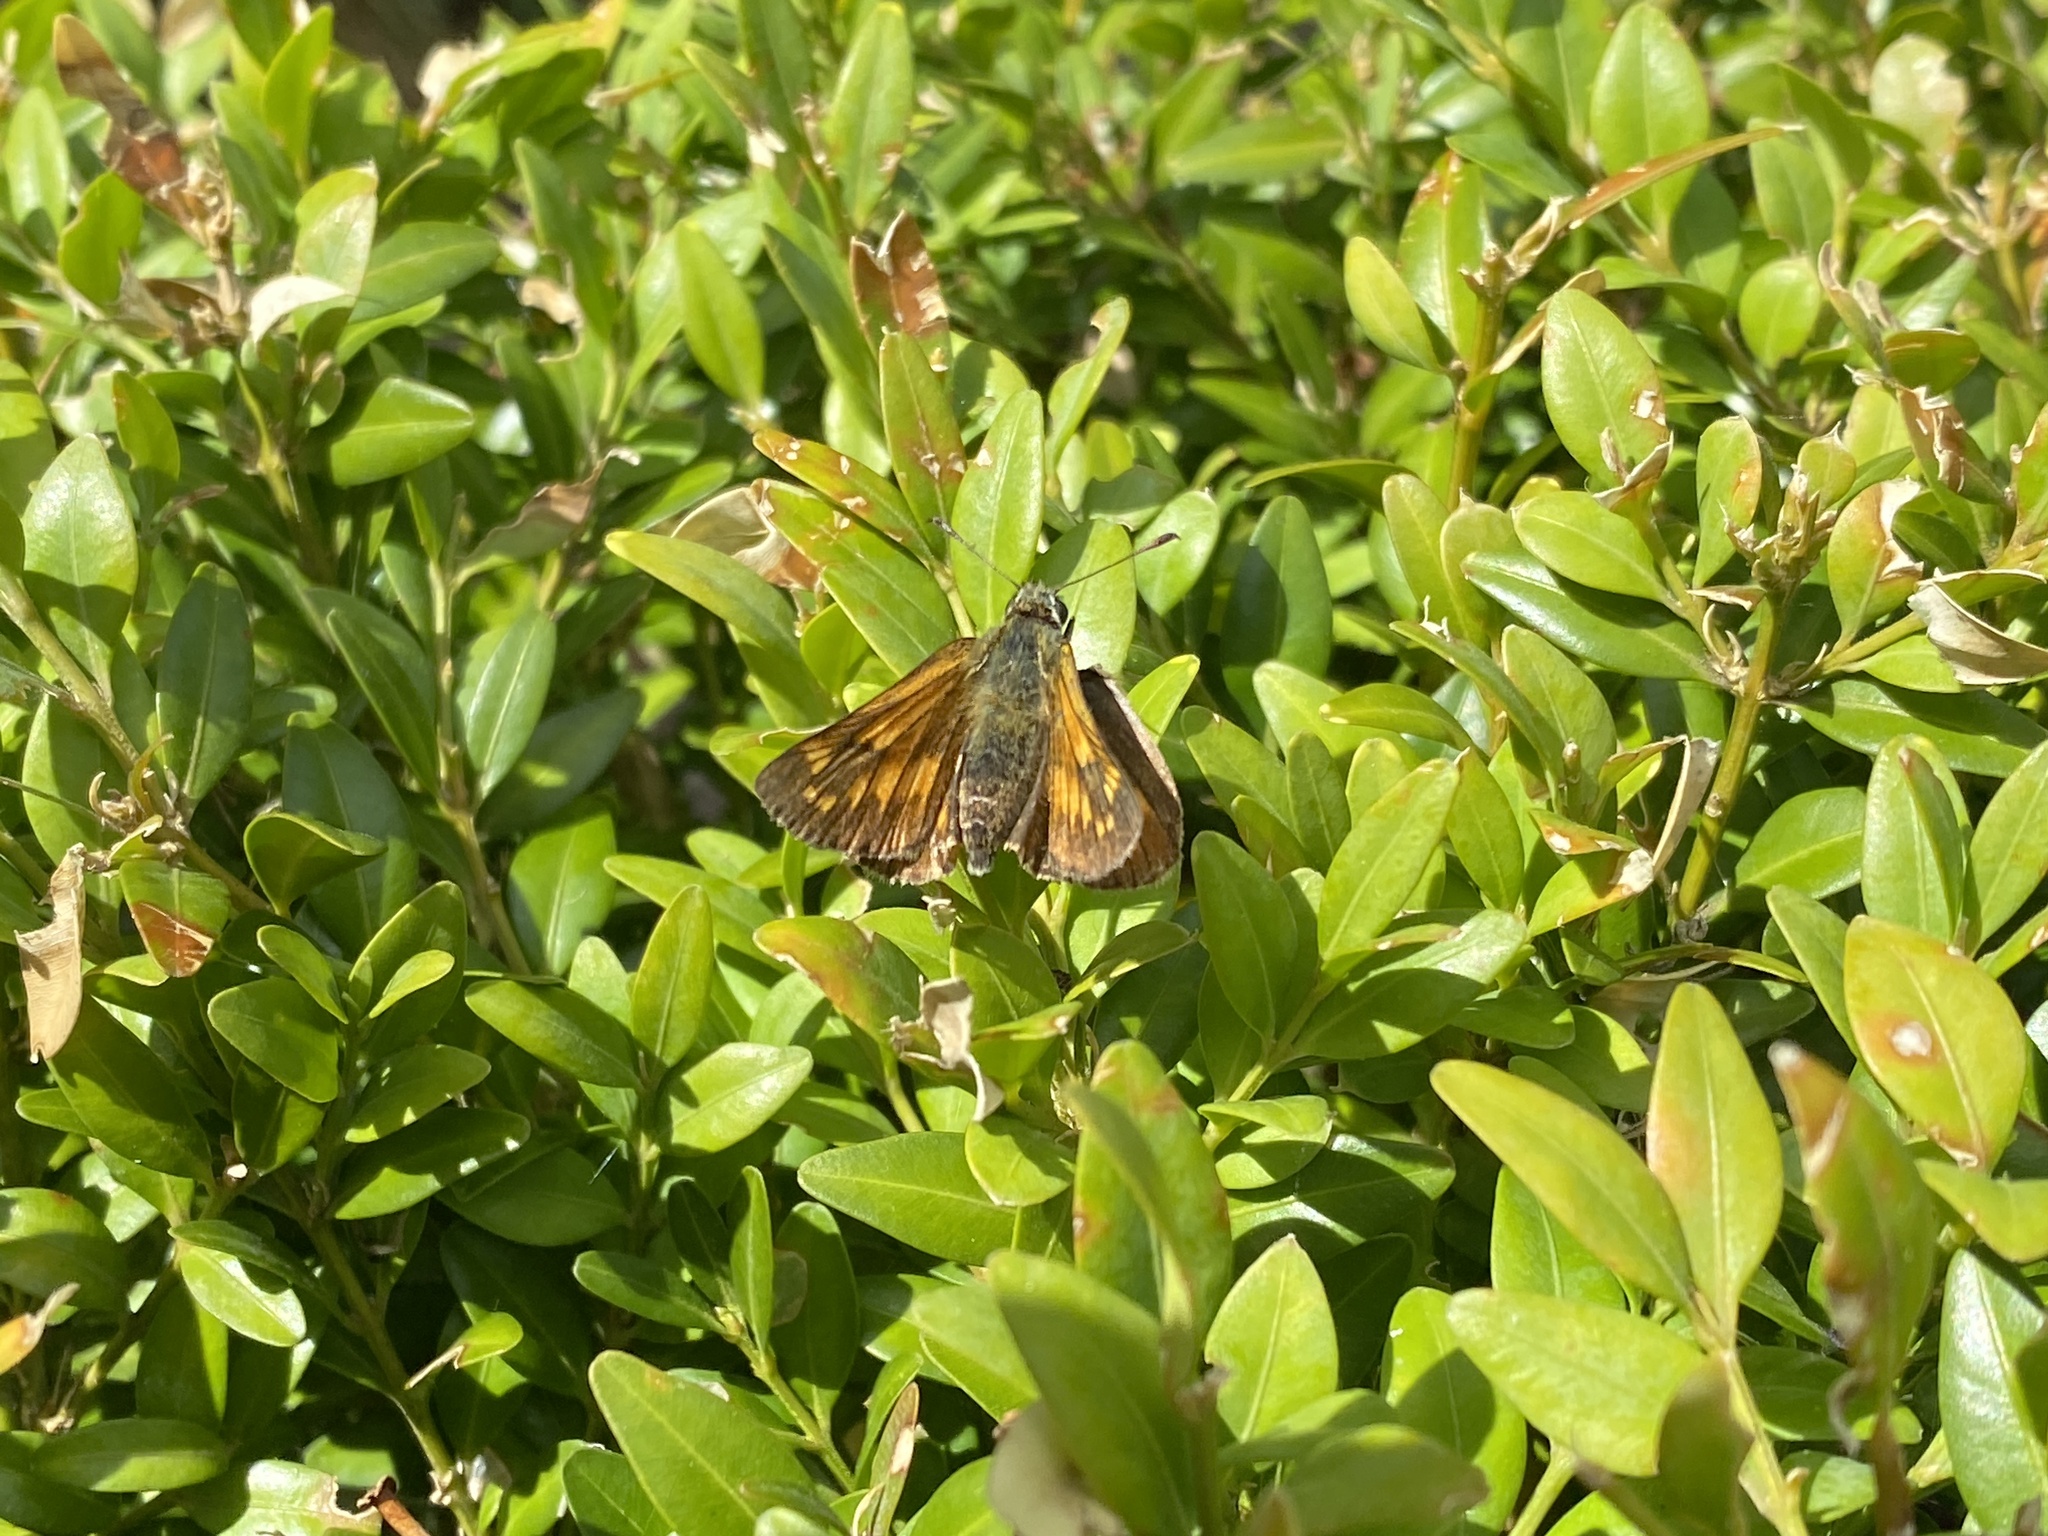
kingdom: Animalia
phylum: Arthropoda
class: Insecta
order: Lepidoptera
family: Hesperiidae
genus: Ochlodes
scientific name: Ochlodes venata
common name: Large skipper
